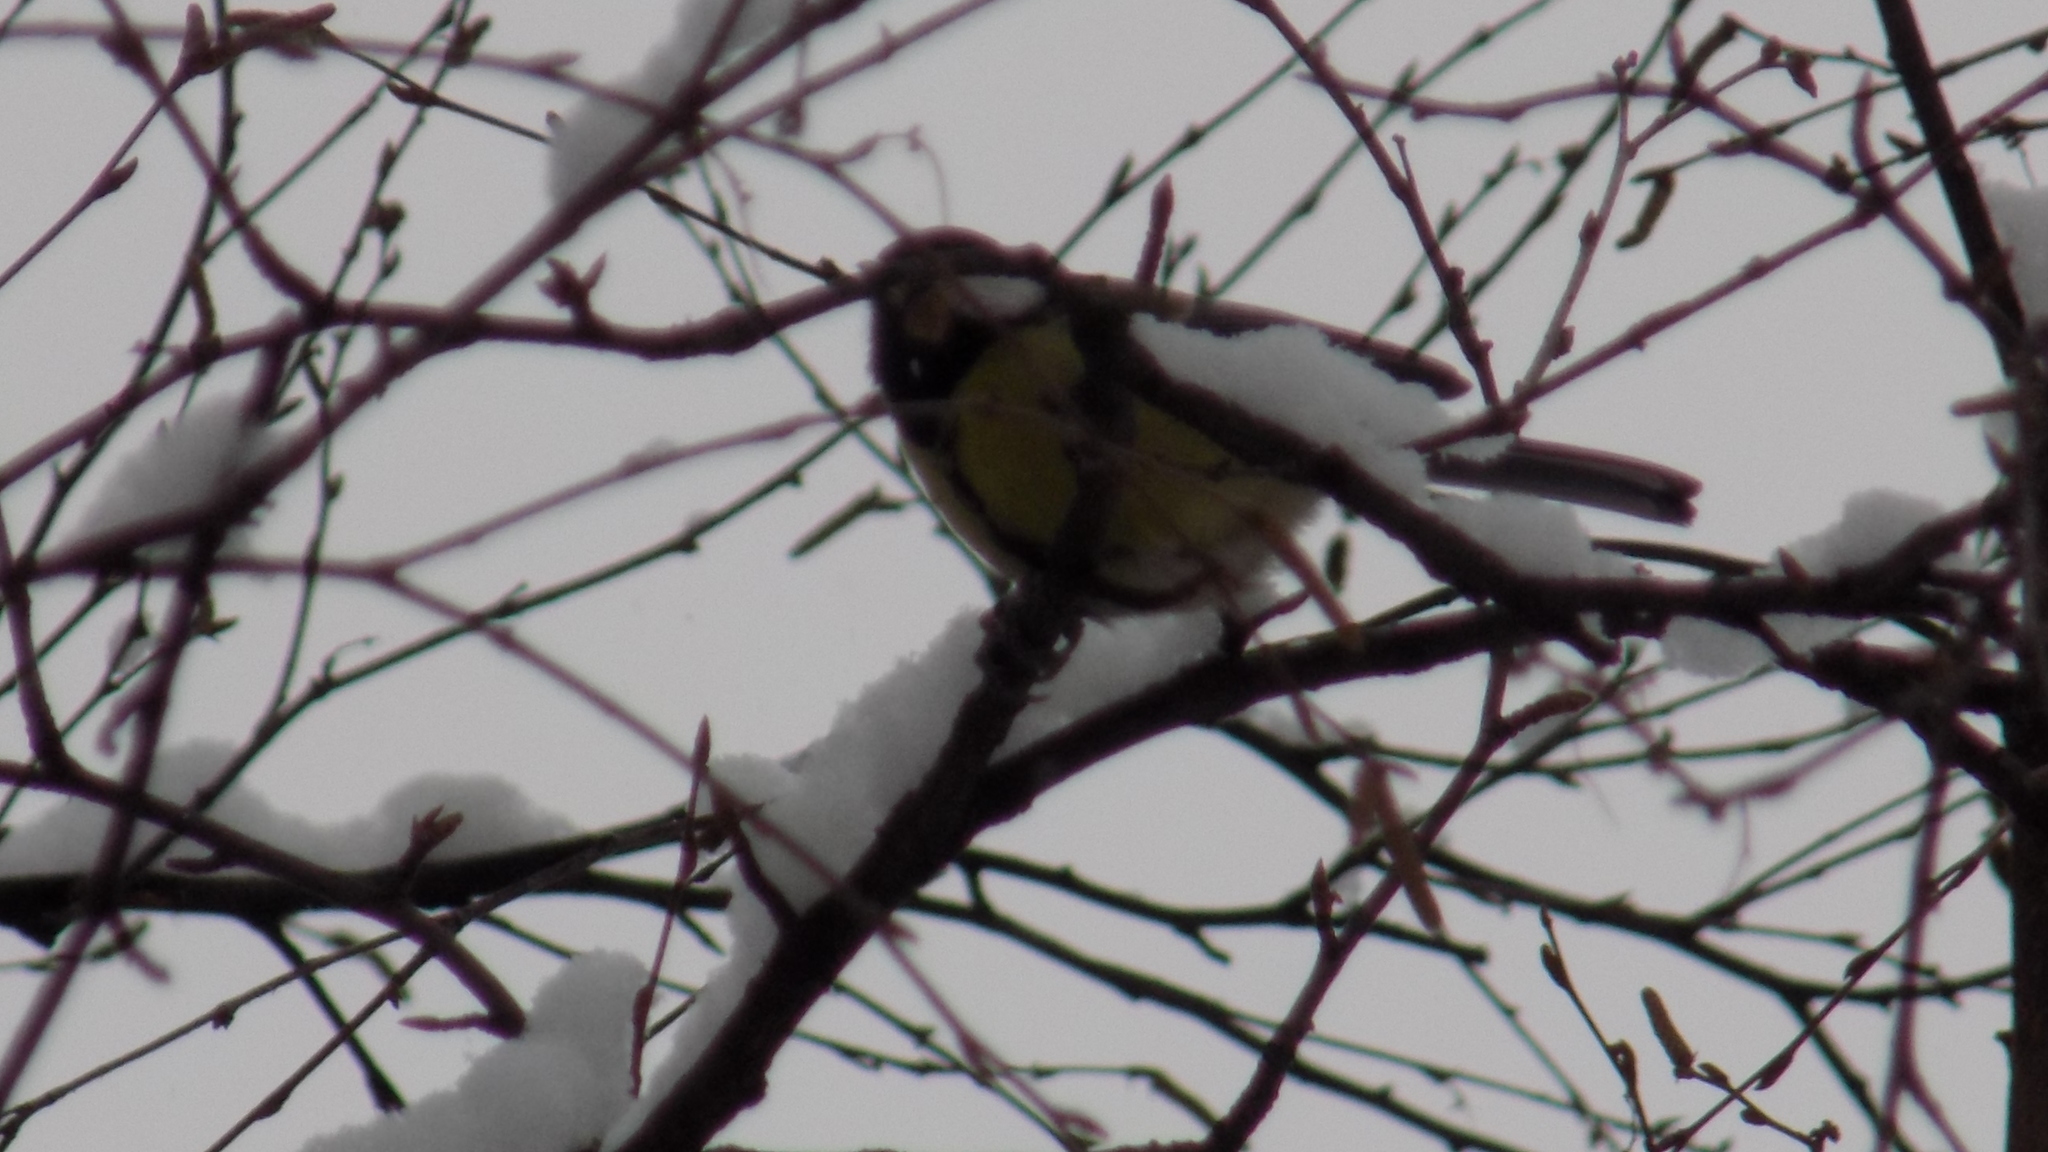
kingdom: Animalia
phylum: Chordata
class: Aves
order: Passeriformes
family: Paridae
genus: Parus
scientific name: Parus major
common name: Great tit
